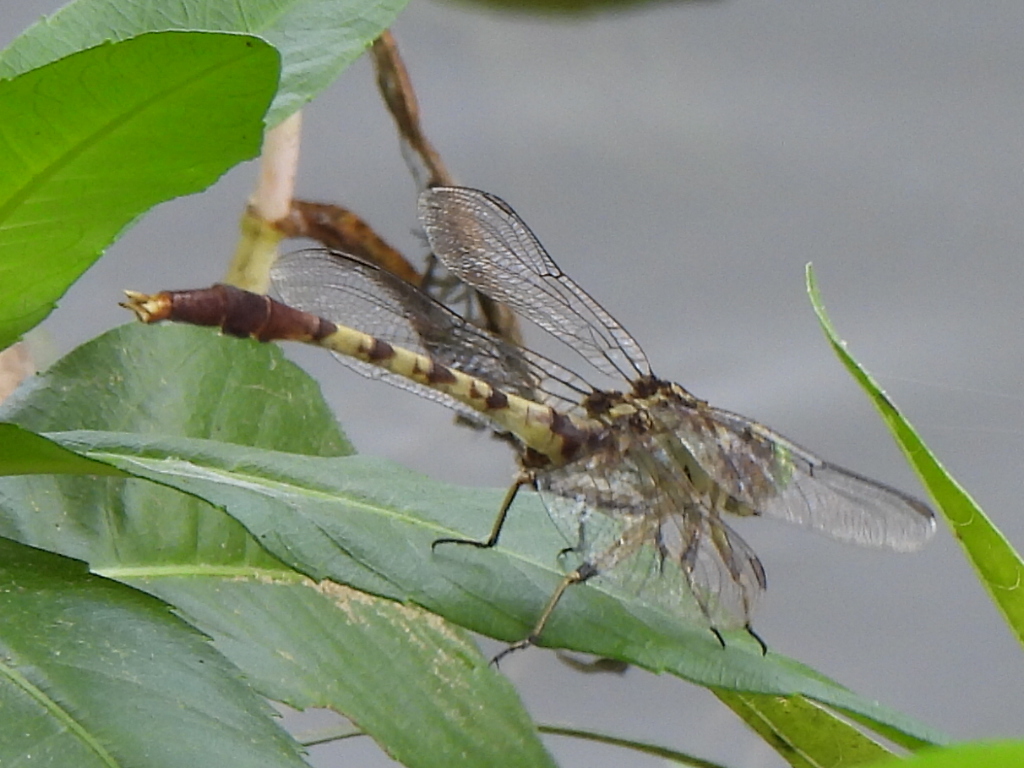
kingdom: Animalia
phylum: Arthropoda
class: Insecta
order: Odonata
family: Gomphidae
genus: Arigomphus
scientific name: Arigomphus submedianus
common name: Jade clubtail
